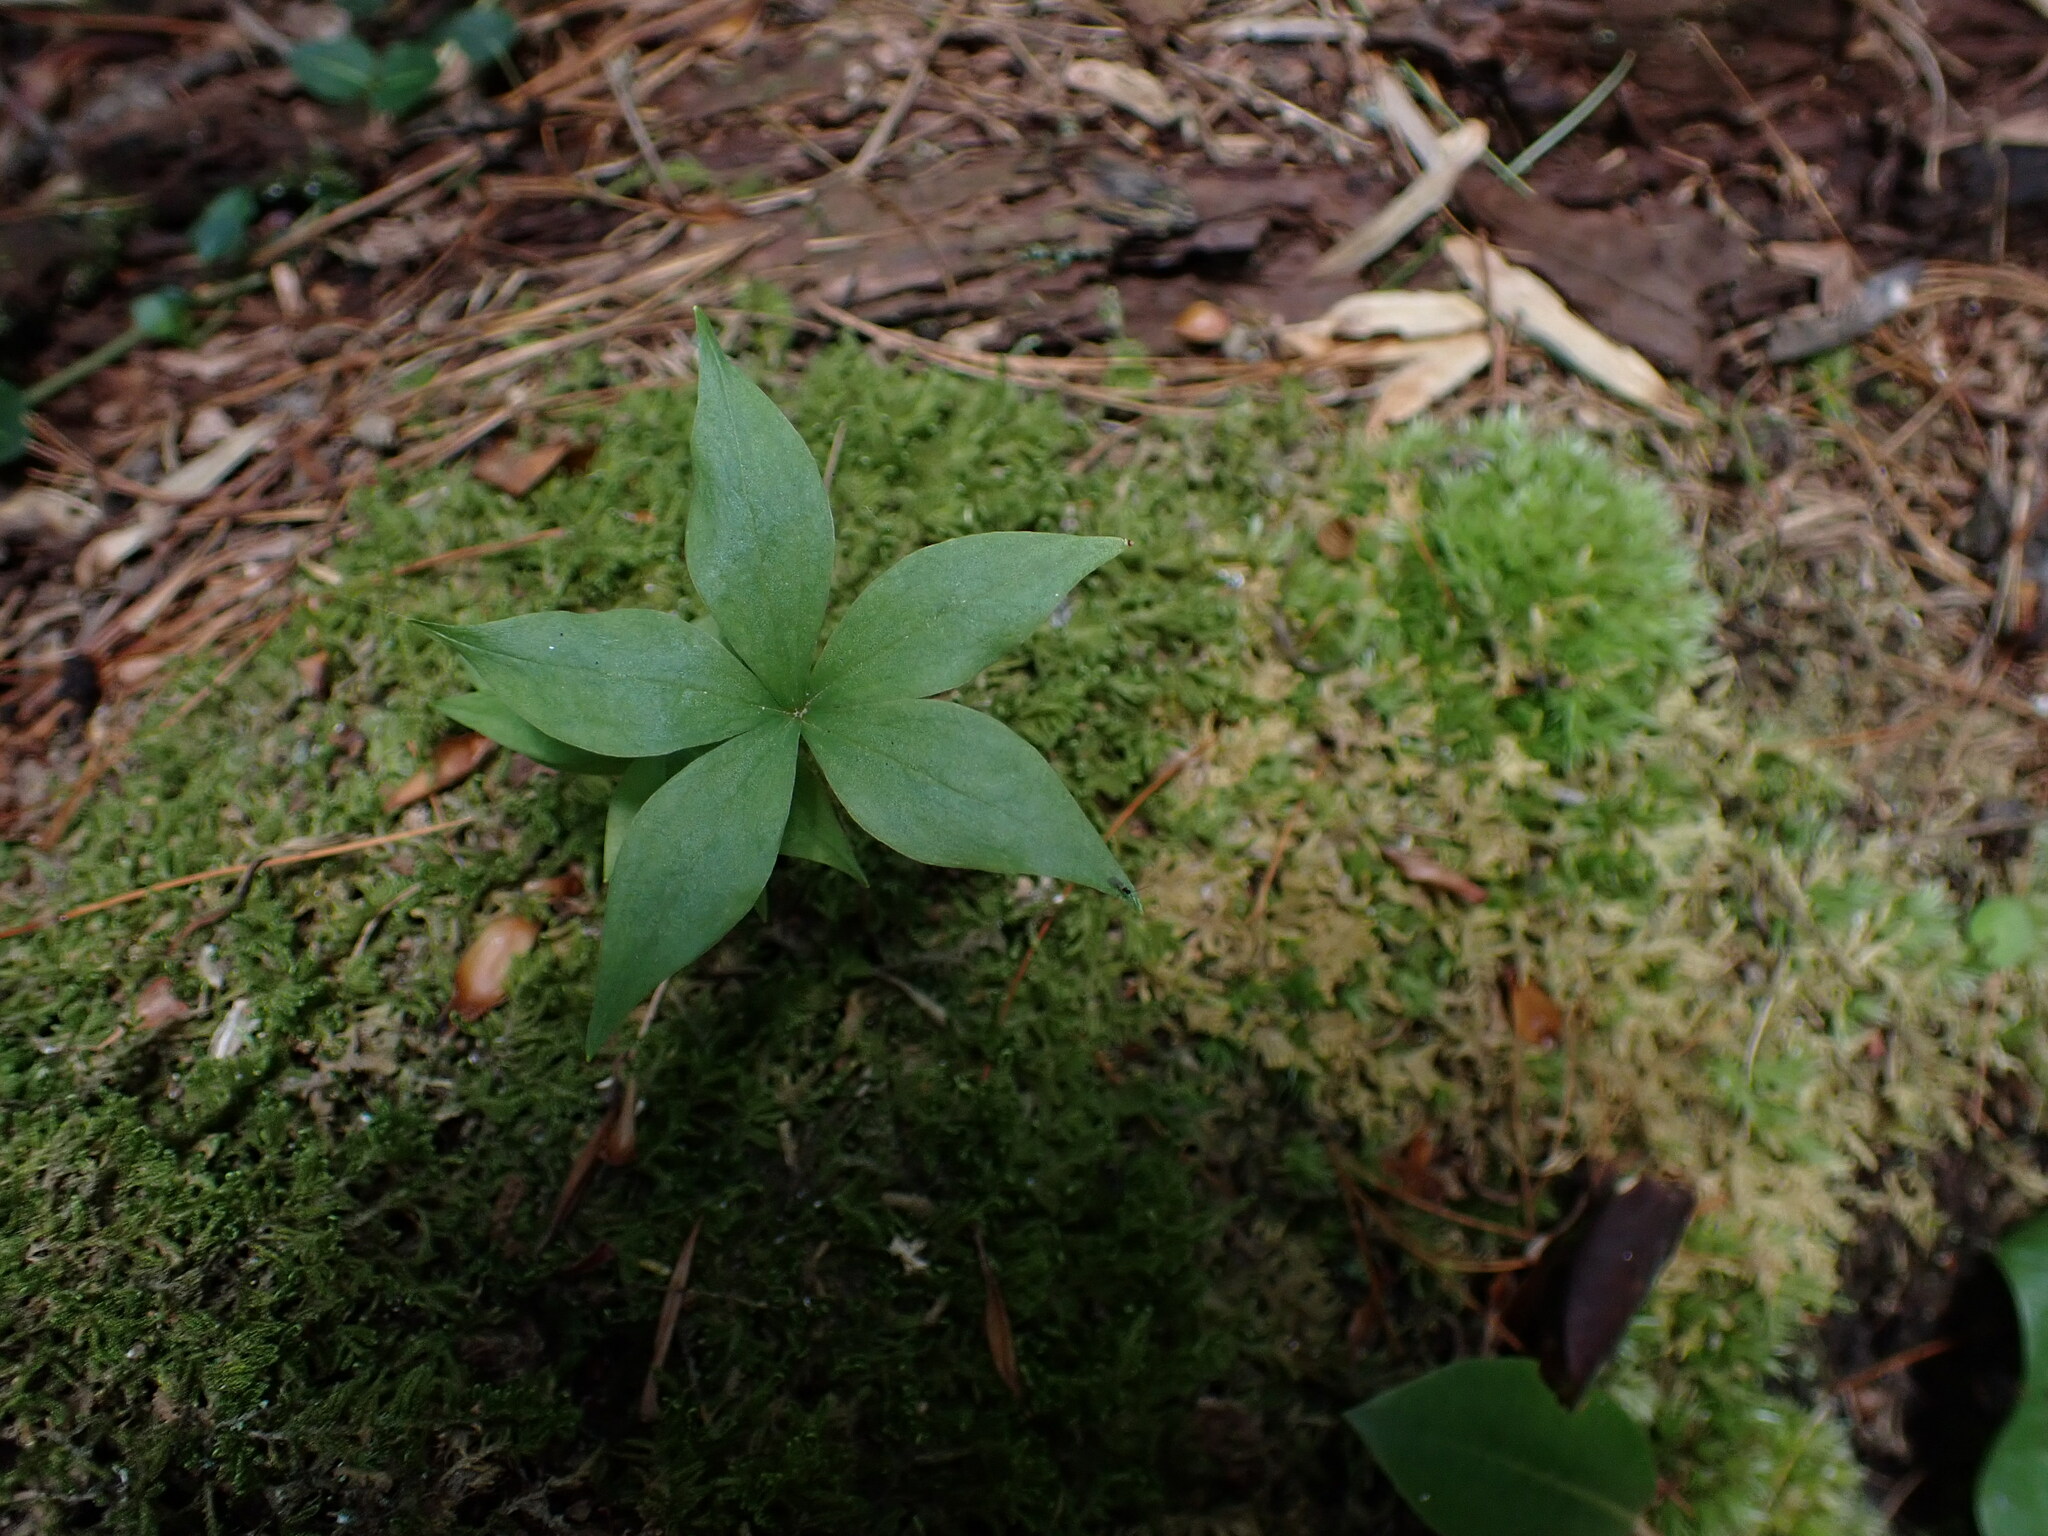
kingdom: Plantae
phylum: Tracheophyta
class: Liliopsida
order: Liliales
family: Liliaceae
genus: Medeola
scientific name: Medeola virginiana
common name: Indian cucumber-root
